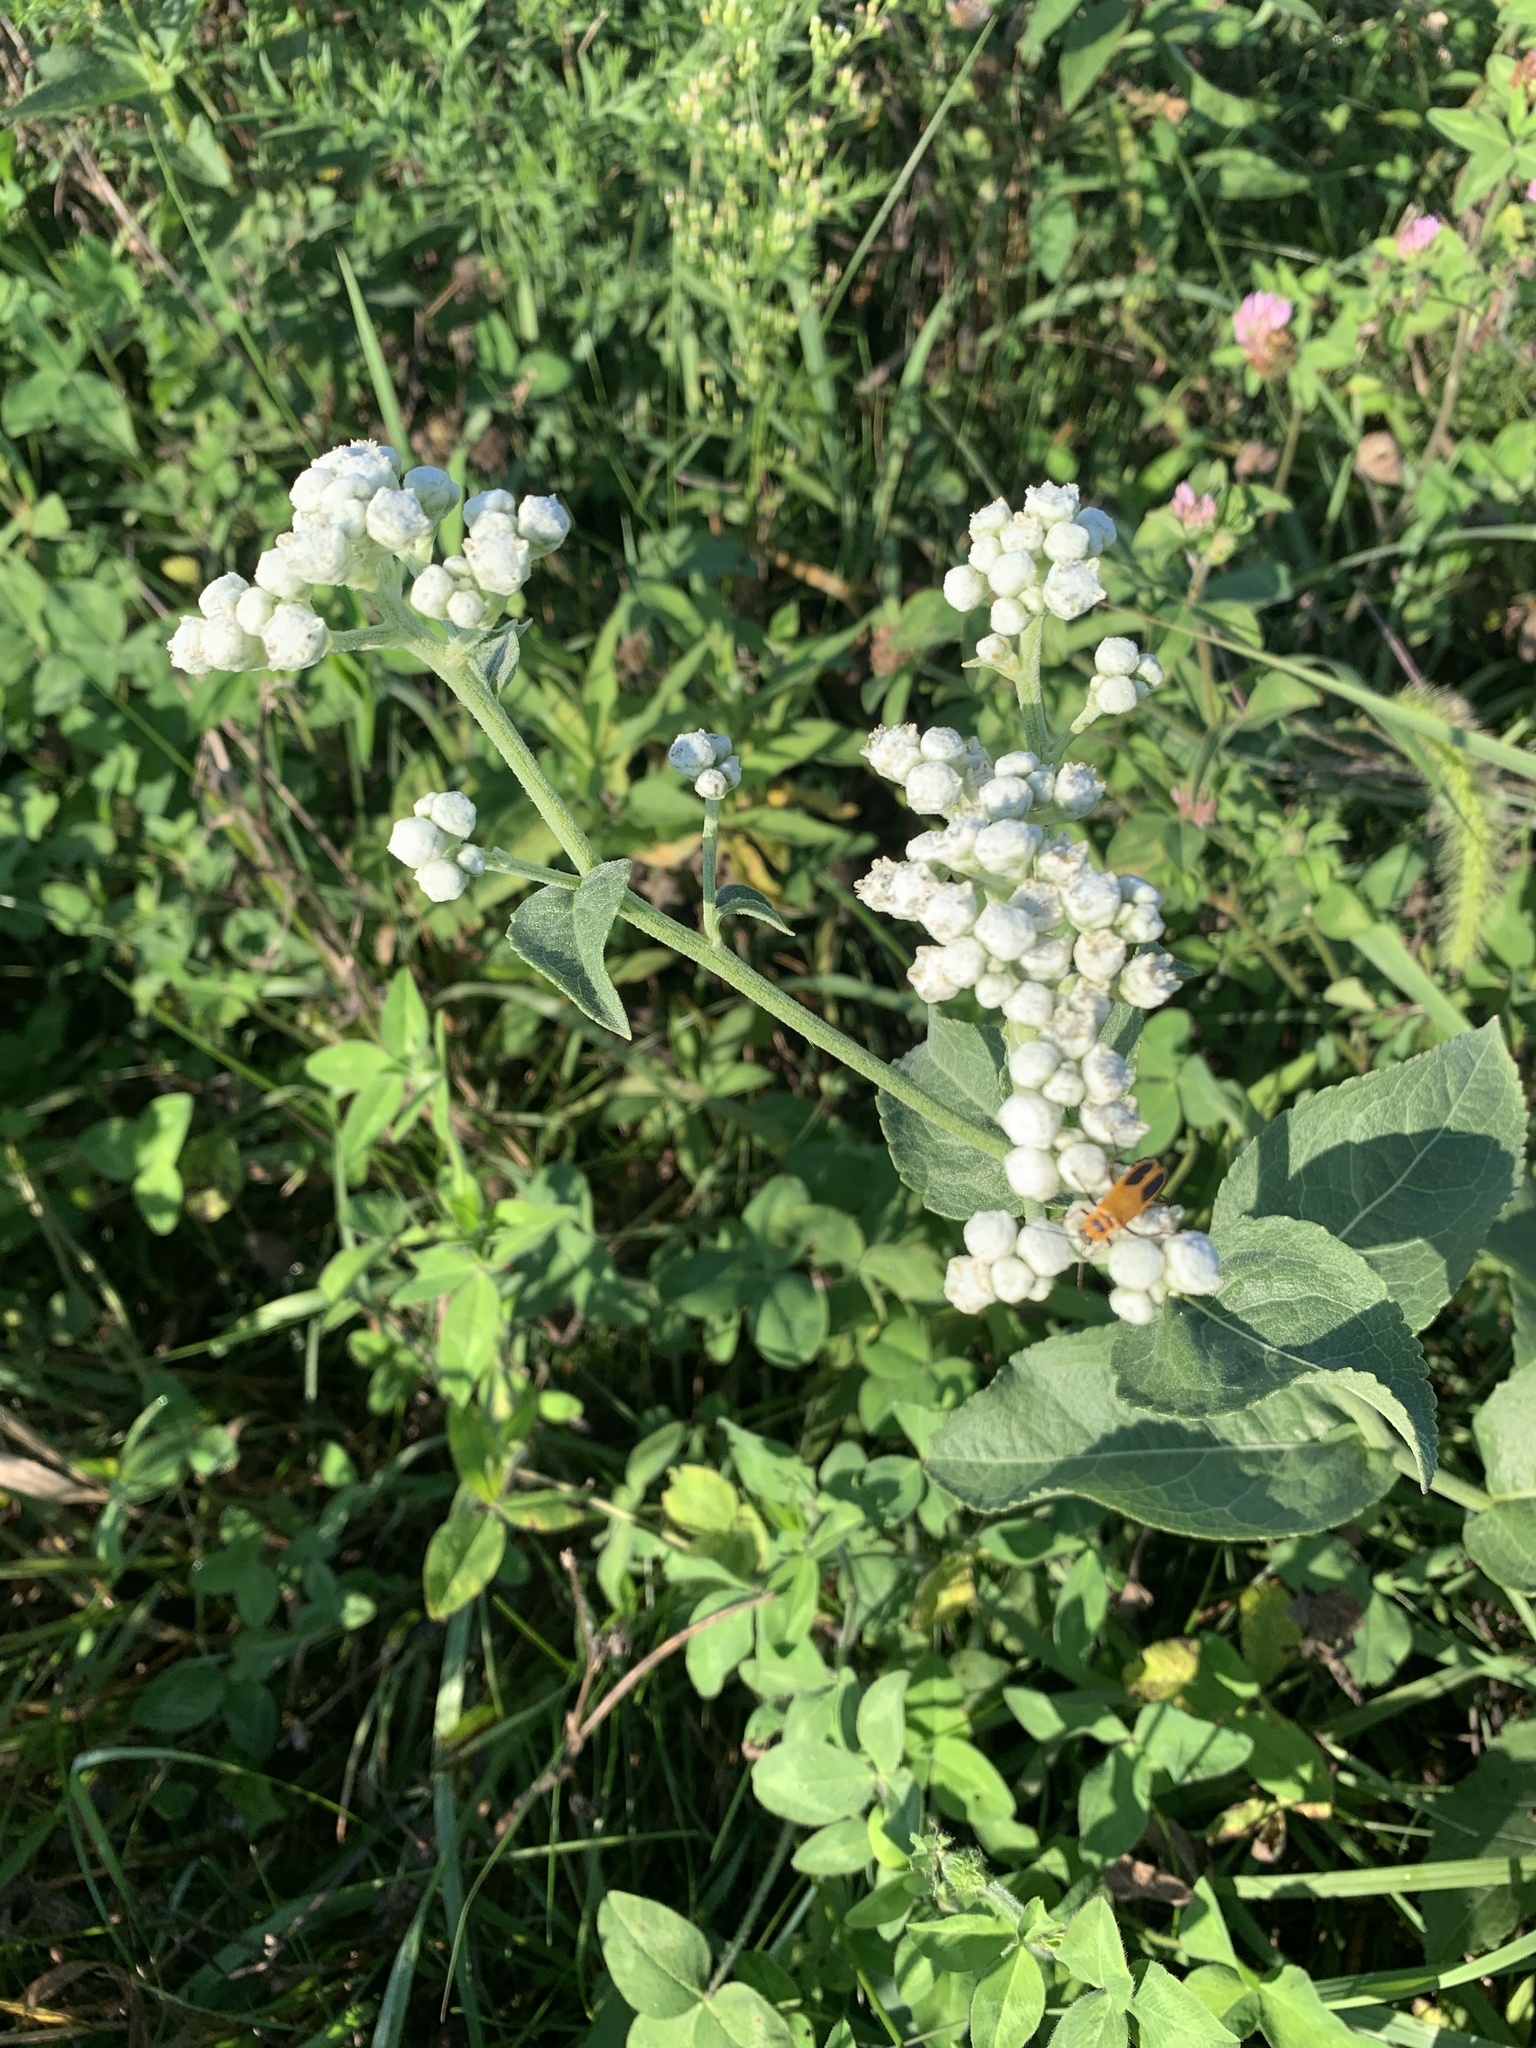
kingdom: Plantae
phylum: Tracheophyta
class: Magnoliopsida
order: Asterales
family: Asteraceae
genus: Parthenium
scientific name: Parthenium integrifolium
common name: American feverfew
